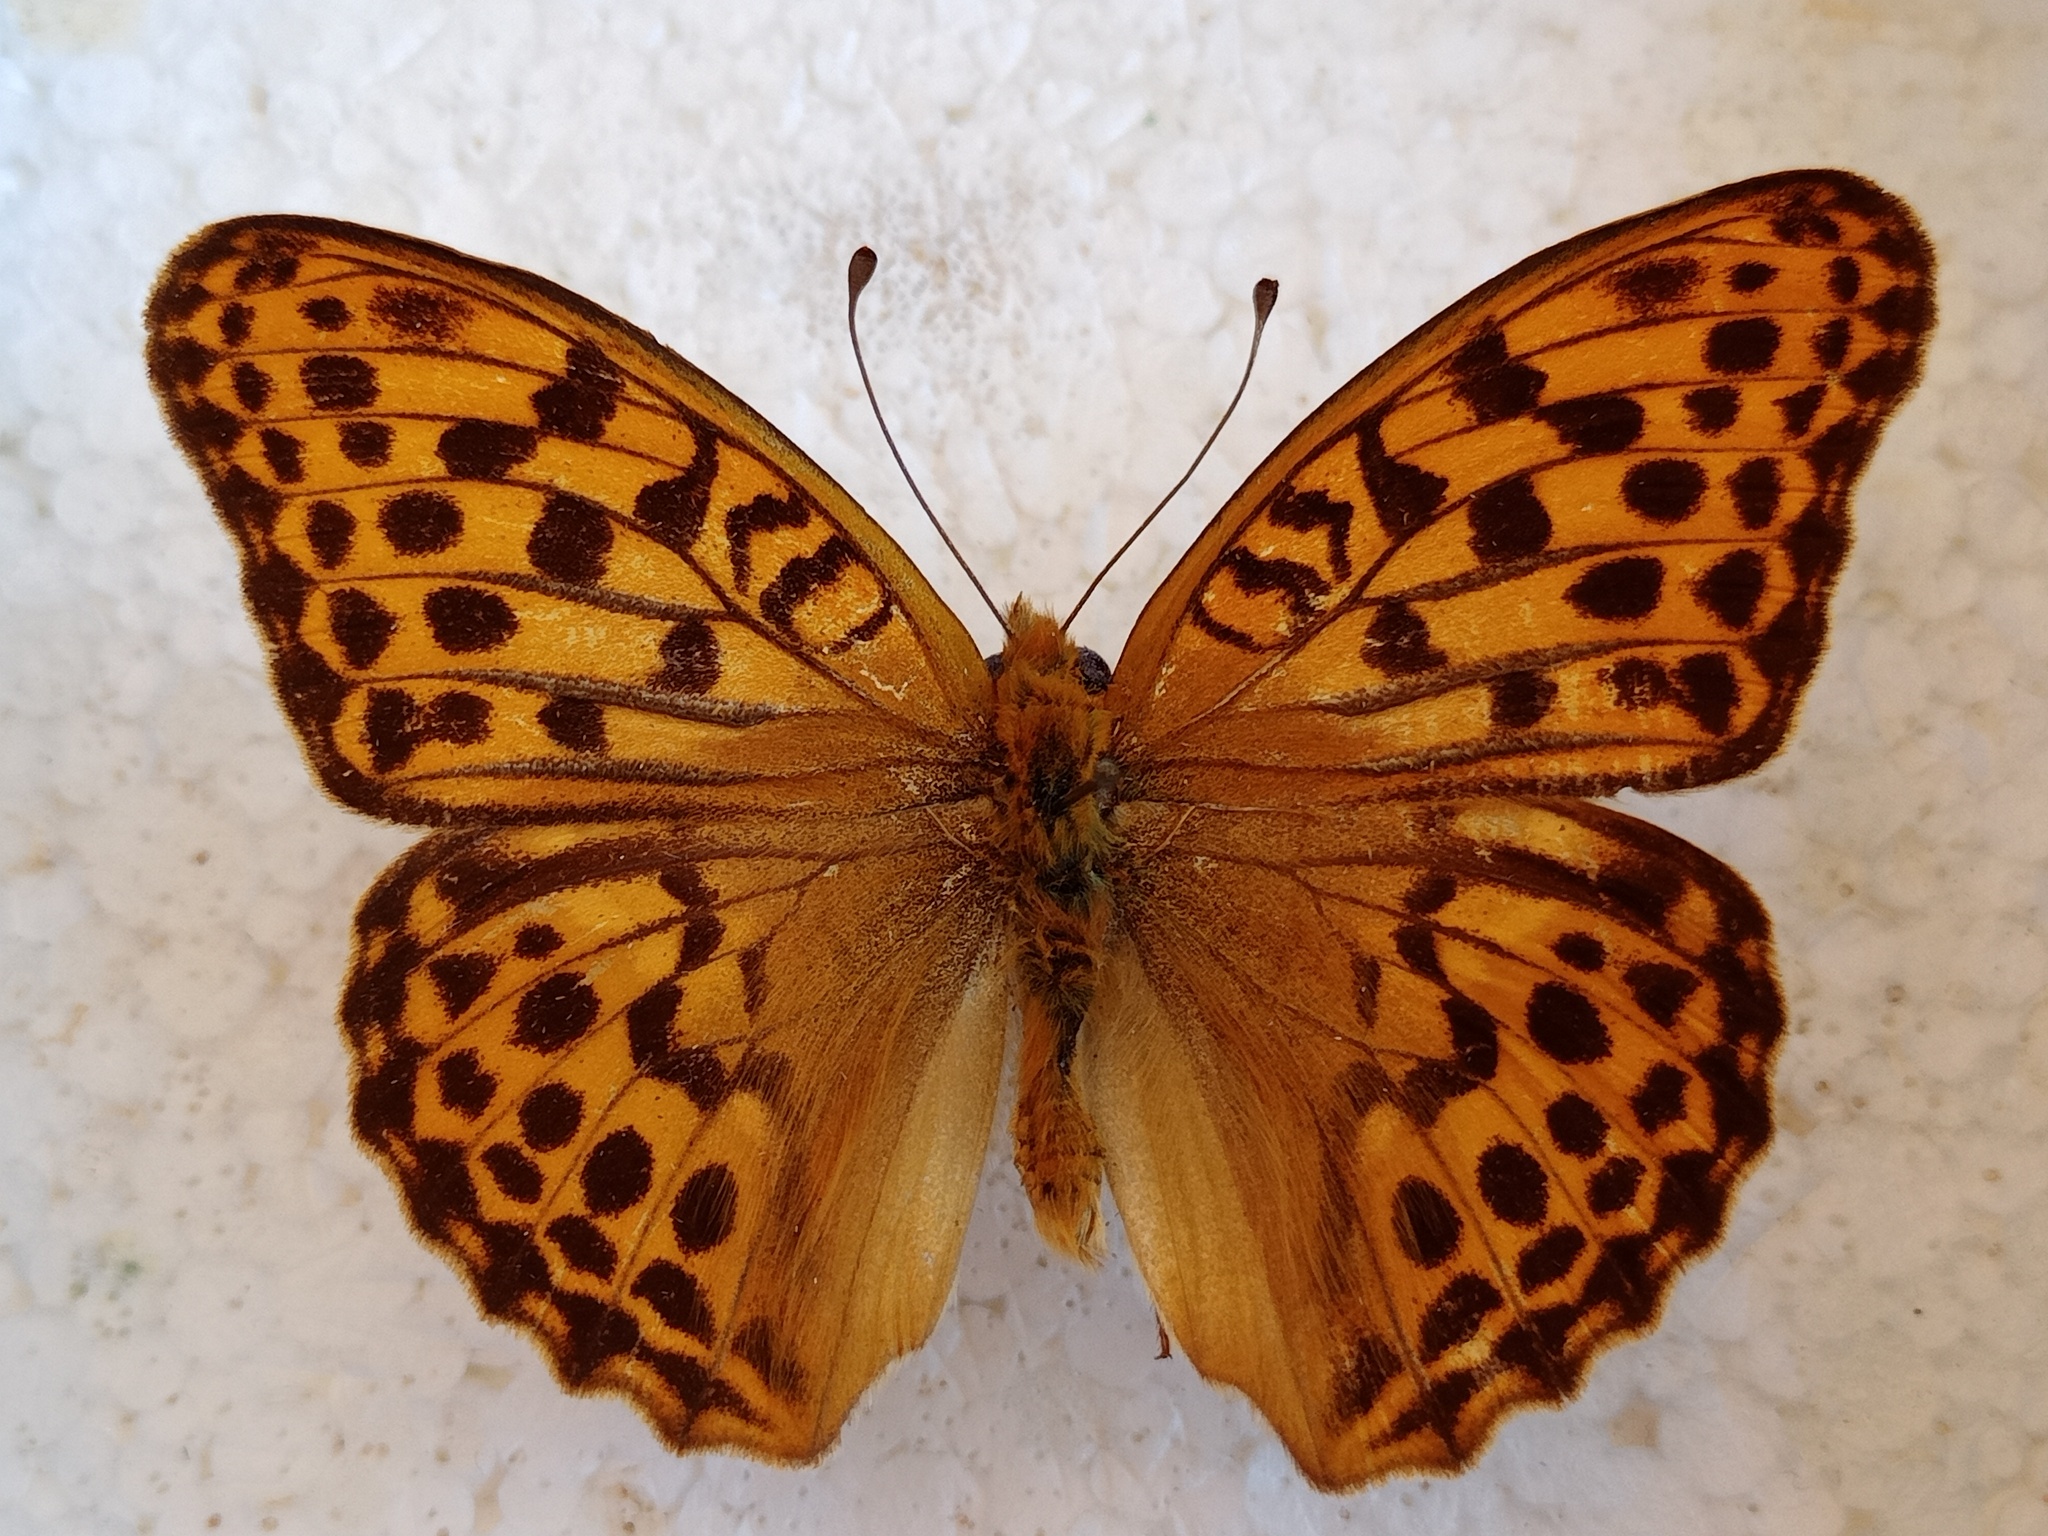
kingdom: Animalia
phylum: Arthropoda
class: Insecta
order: Lepidoptera
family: Nymphalidae
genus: Argyronome
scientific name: Argyronome ruslana
